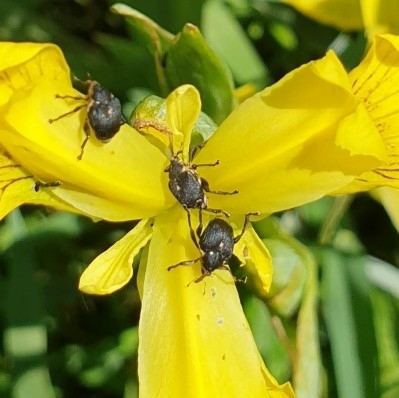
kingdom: Animalia
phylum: Arthropoda
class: Insecta
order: Coleoptera
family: Curculionidae
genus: Mononychus
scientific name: Mononychus punctumalbum
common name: Iris weevil
